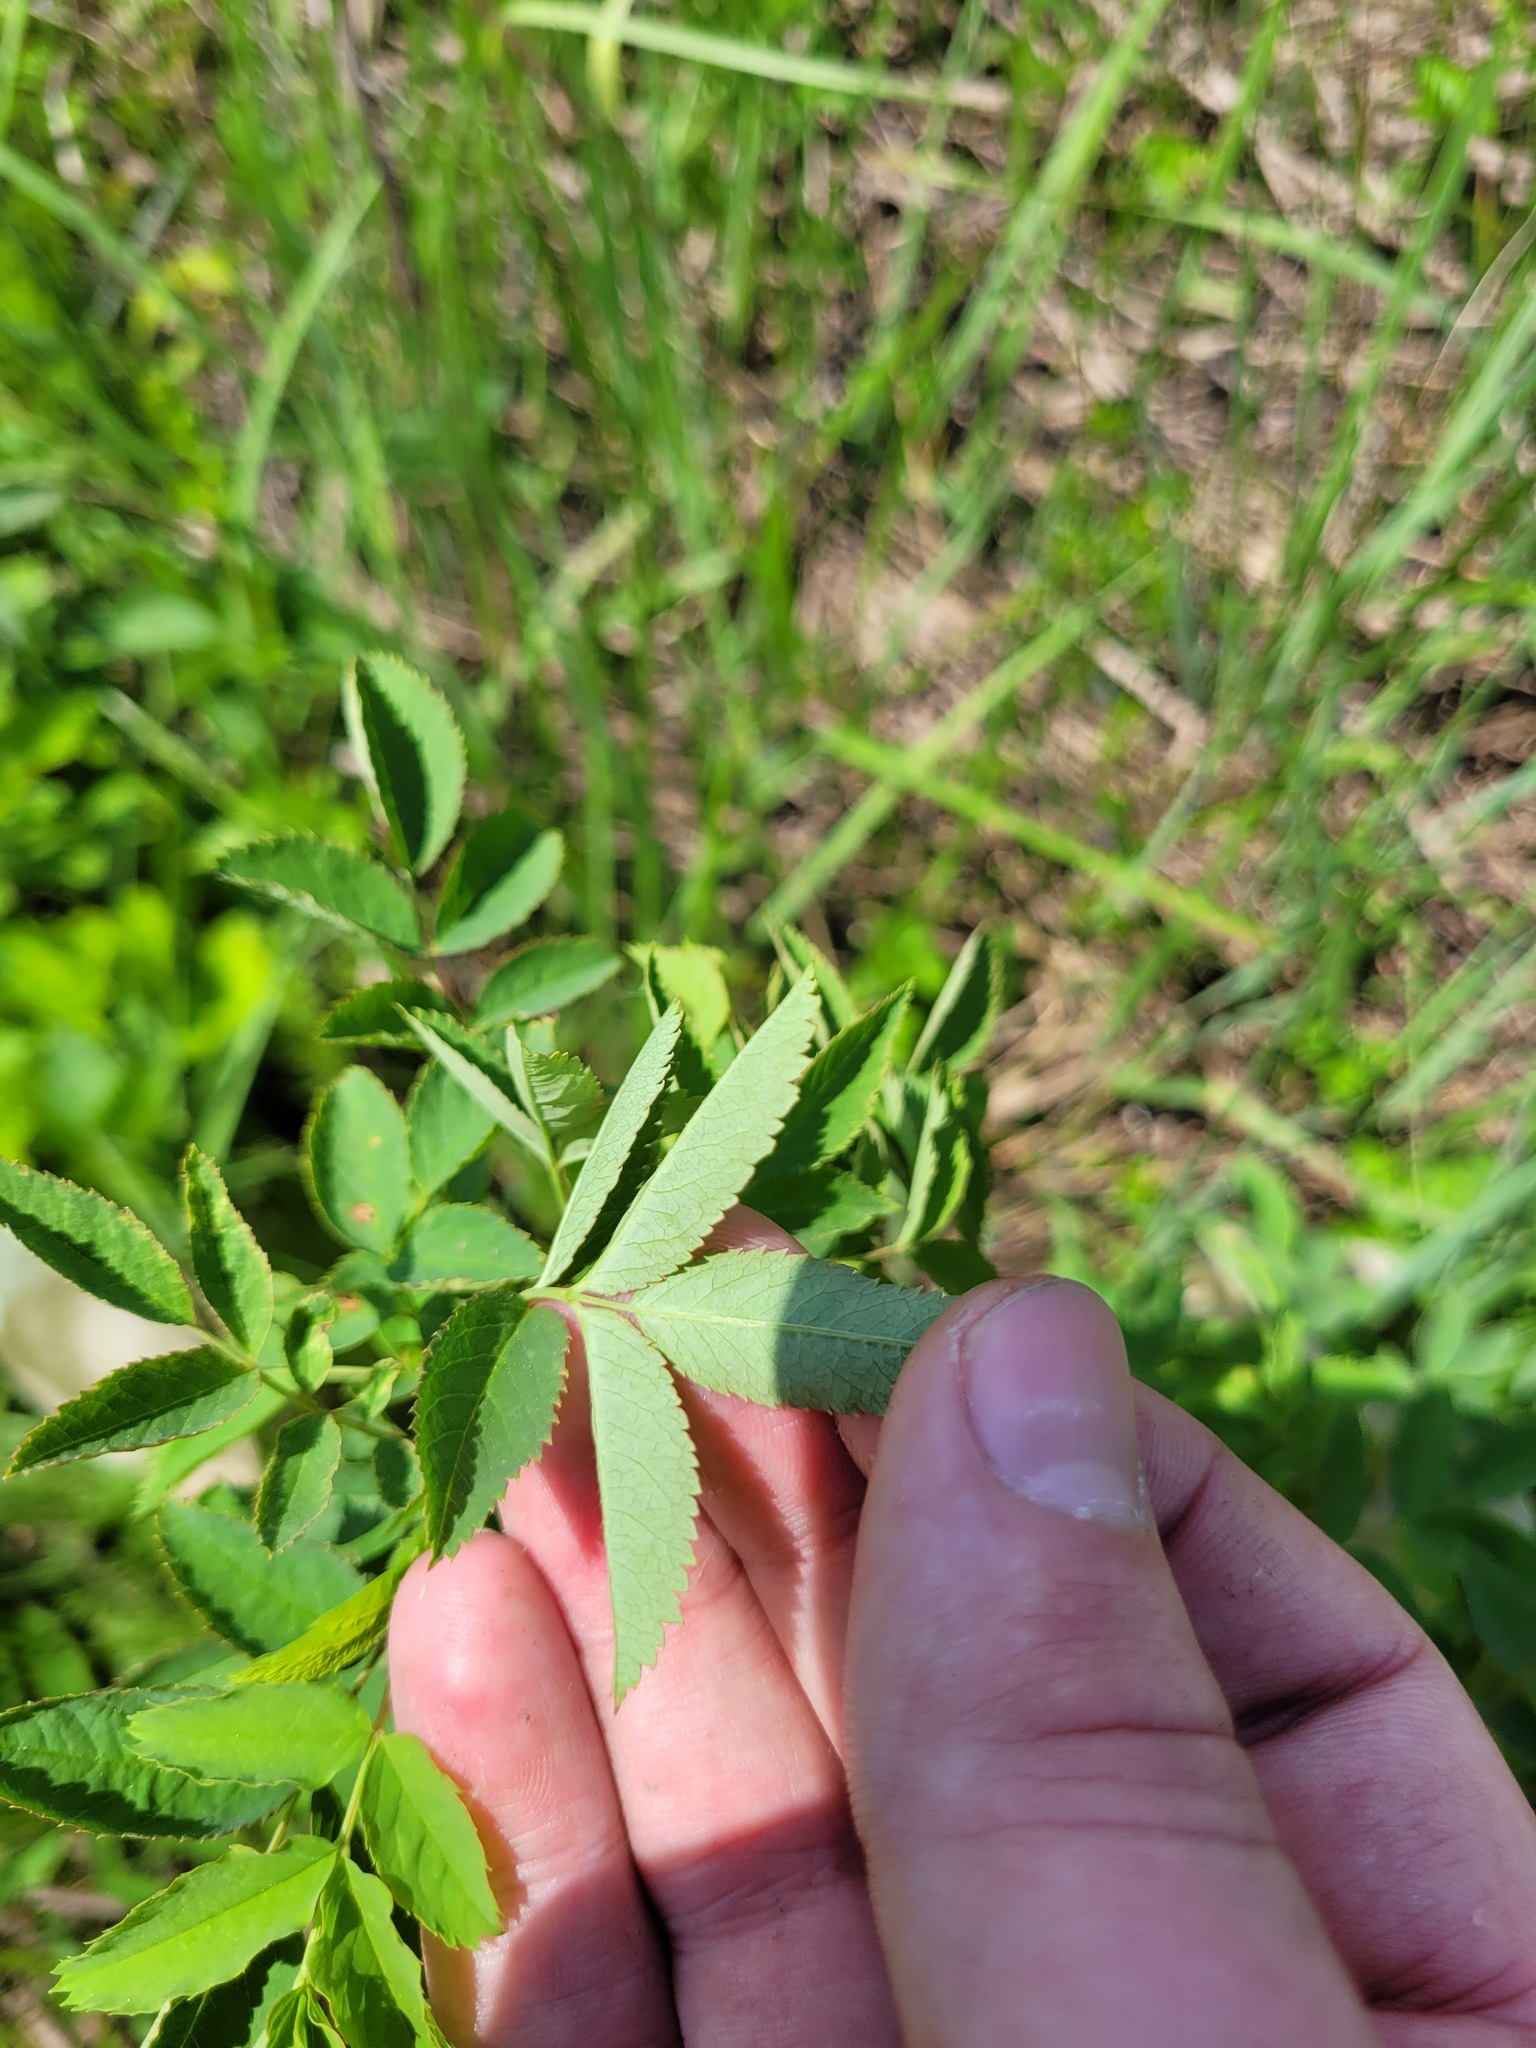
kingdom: Plantae
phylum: Tracheophyta
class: Magnoliopsida
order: Rosales
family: Rosaceae
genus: Rosa
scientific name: Rosa majalis
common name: Cinnamon rose
